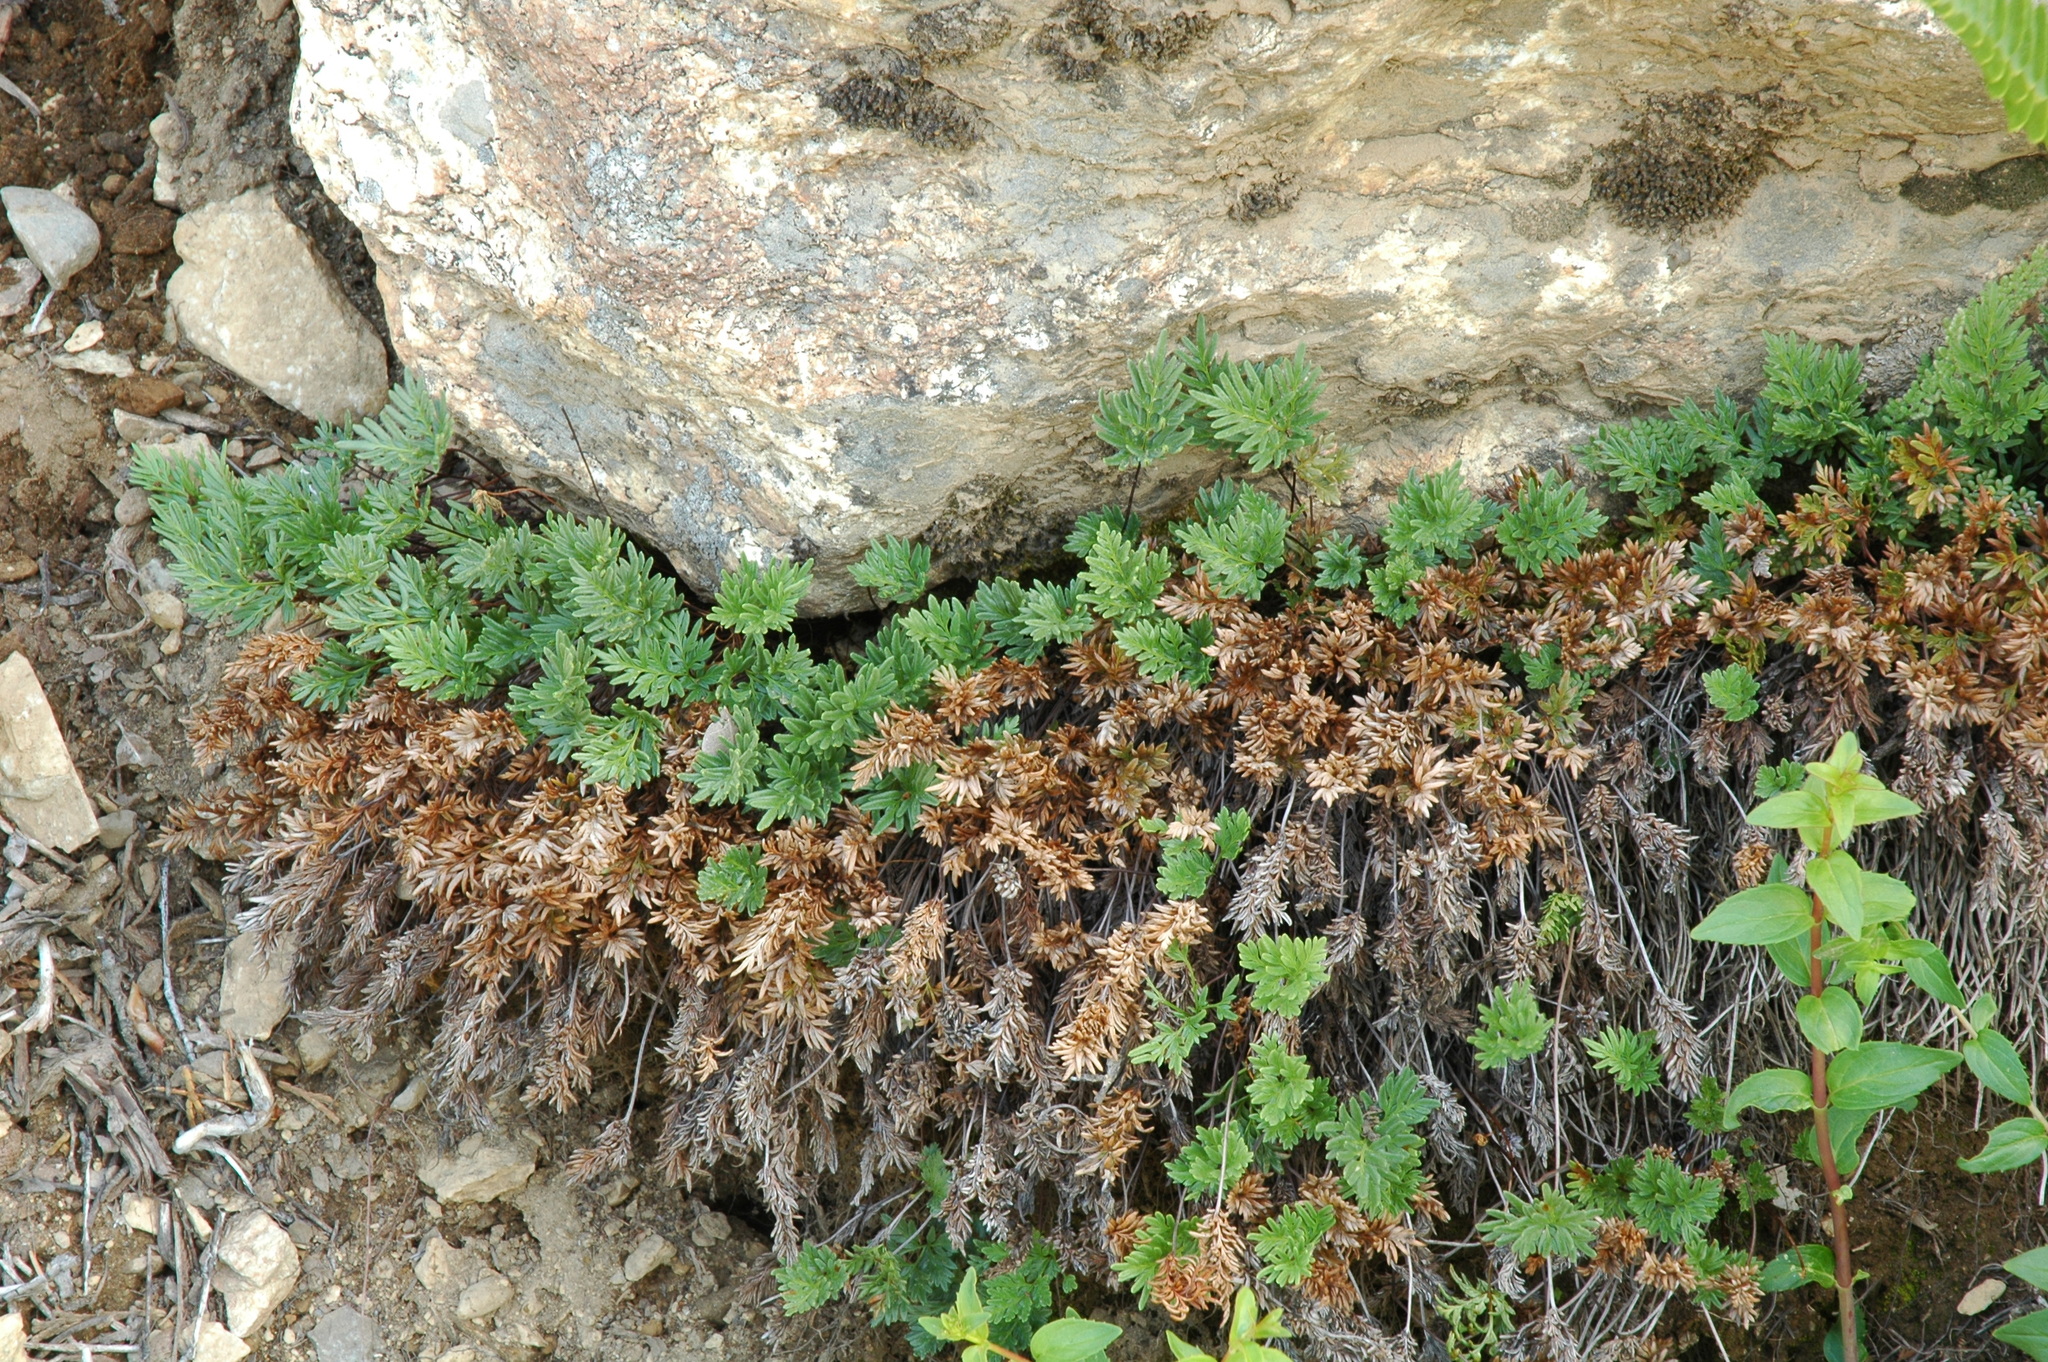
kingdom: Plantae
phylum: Tracheophyta
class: Polypodiopsida
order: Polypodiales
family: Pteridaceae
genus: Aspidotis
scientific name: Aspidotis densa
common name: Indian's dream
